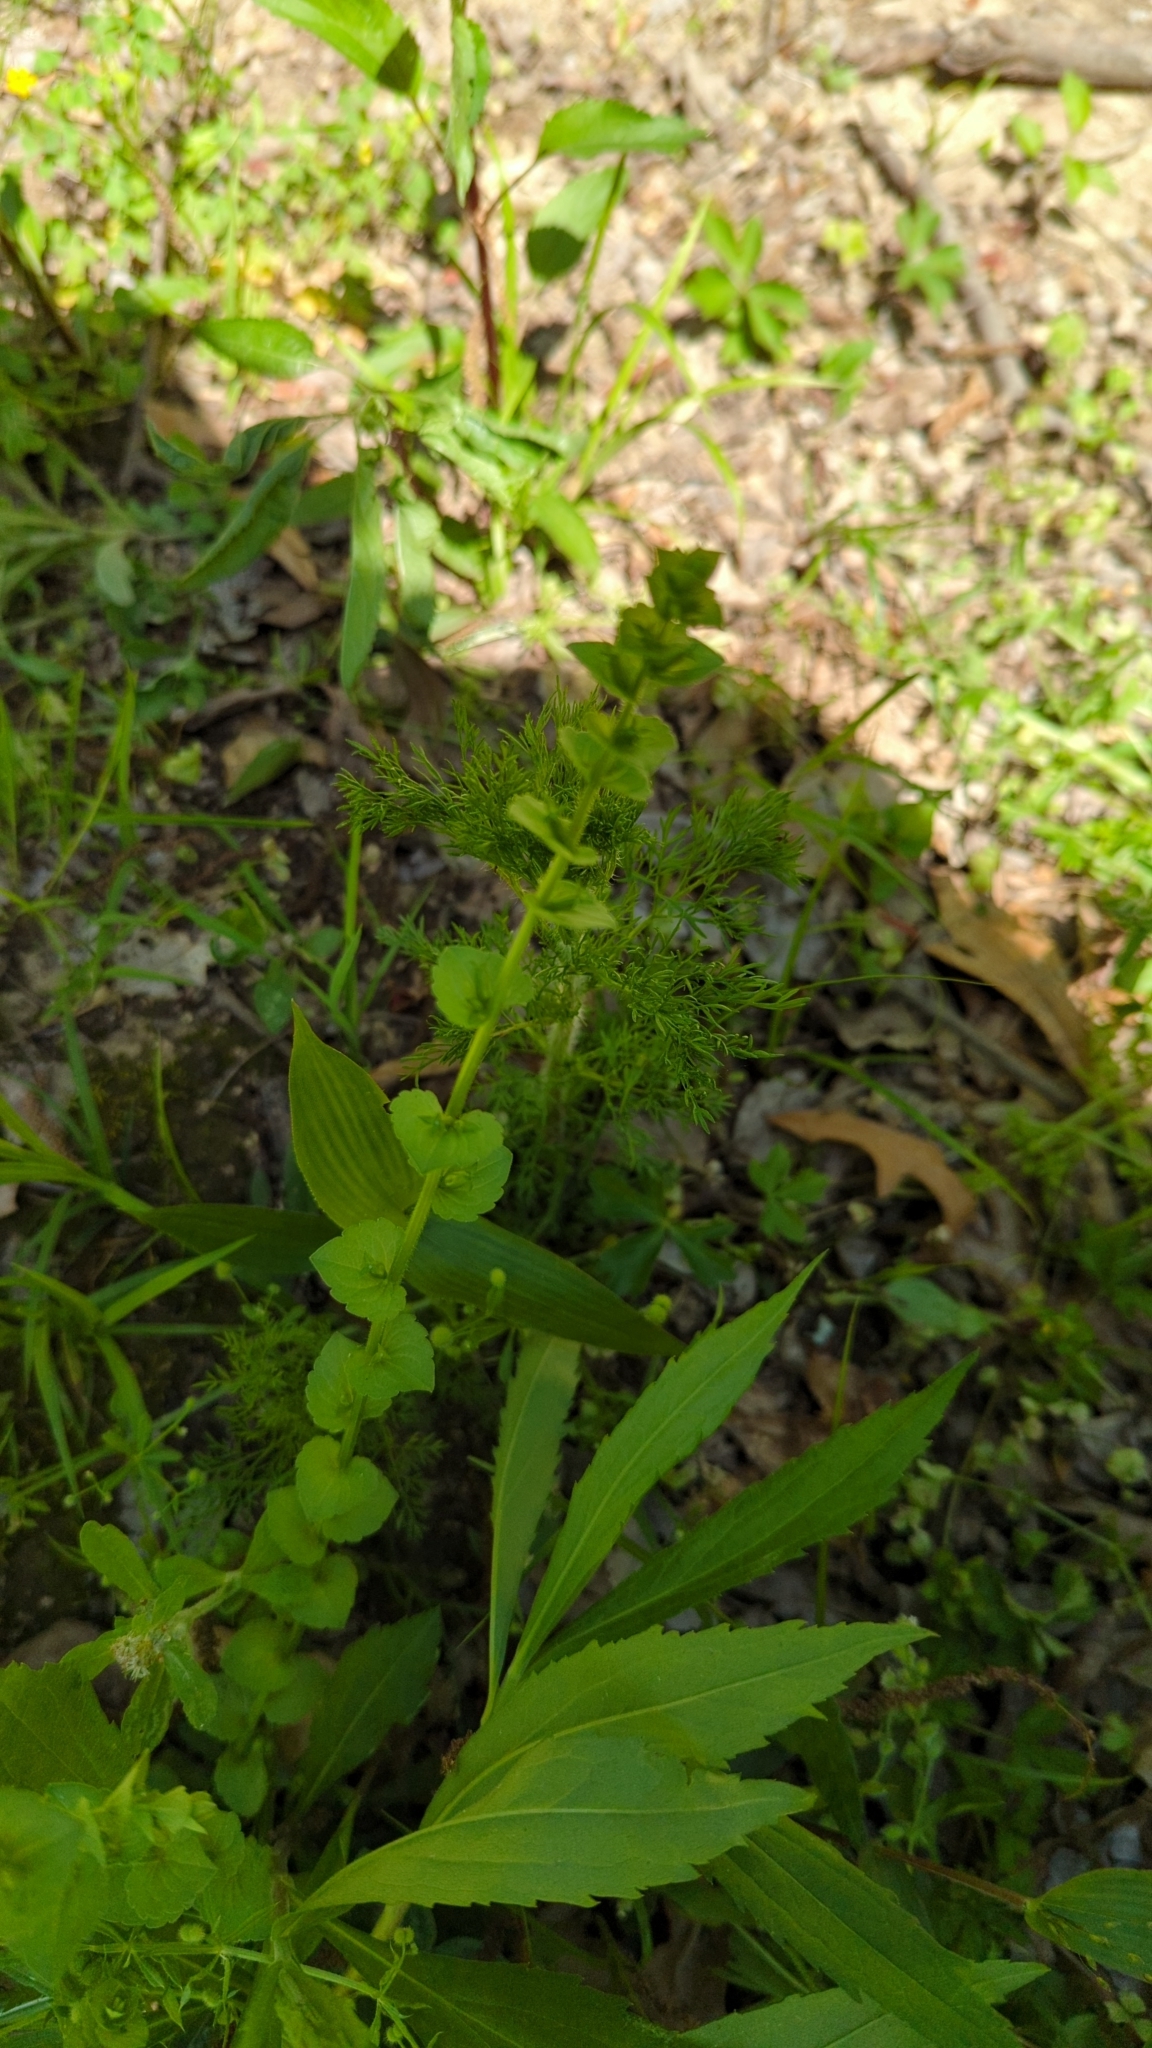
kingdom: Plantae
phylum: Tracheophyta
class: Magnoliopsida
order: Asterales
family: Campanulaceae
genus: Triodanis
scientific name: Triodanis perfoliata
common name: Clasping venus' looking-glass
